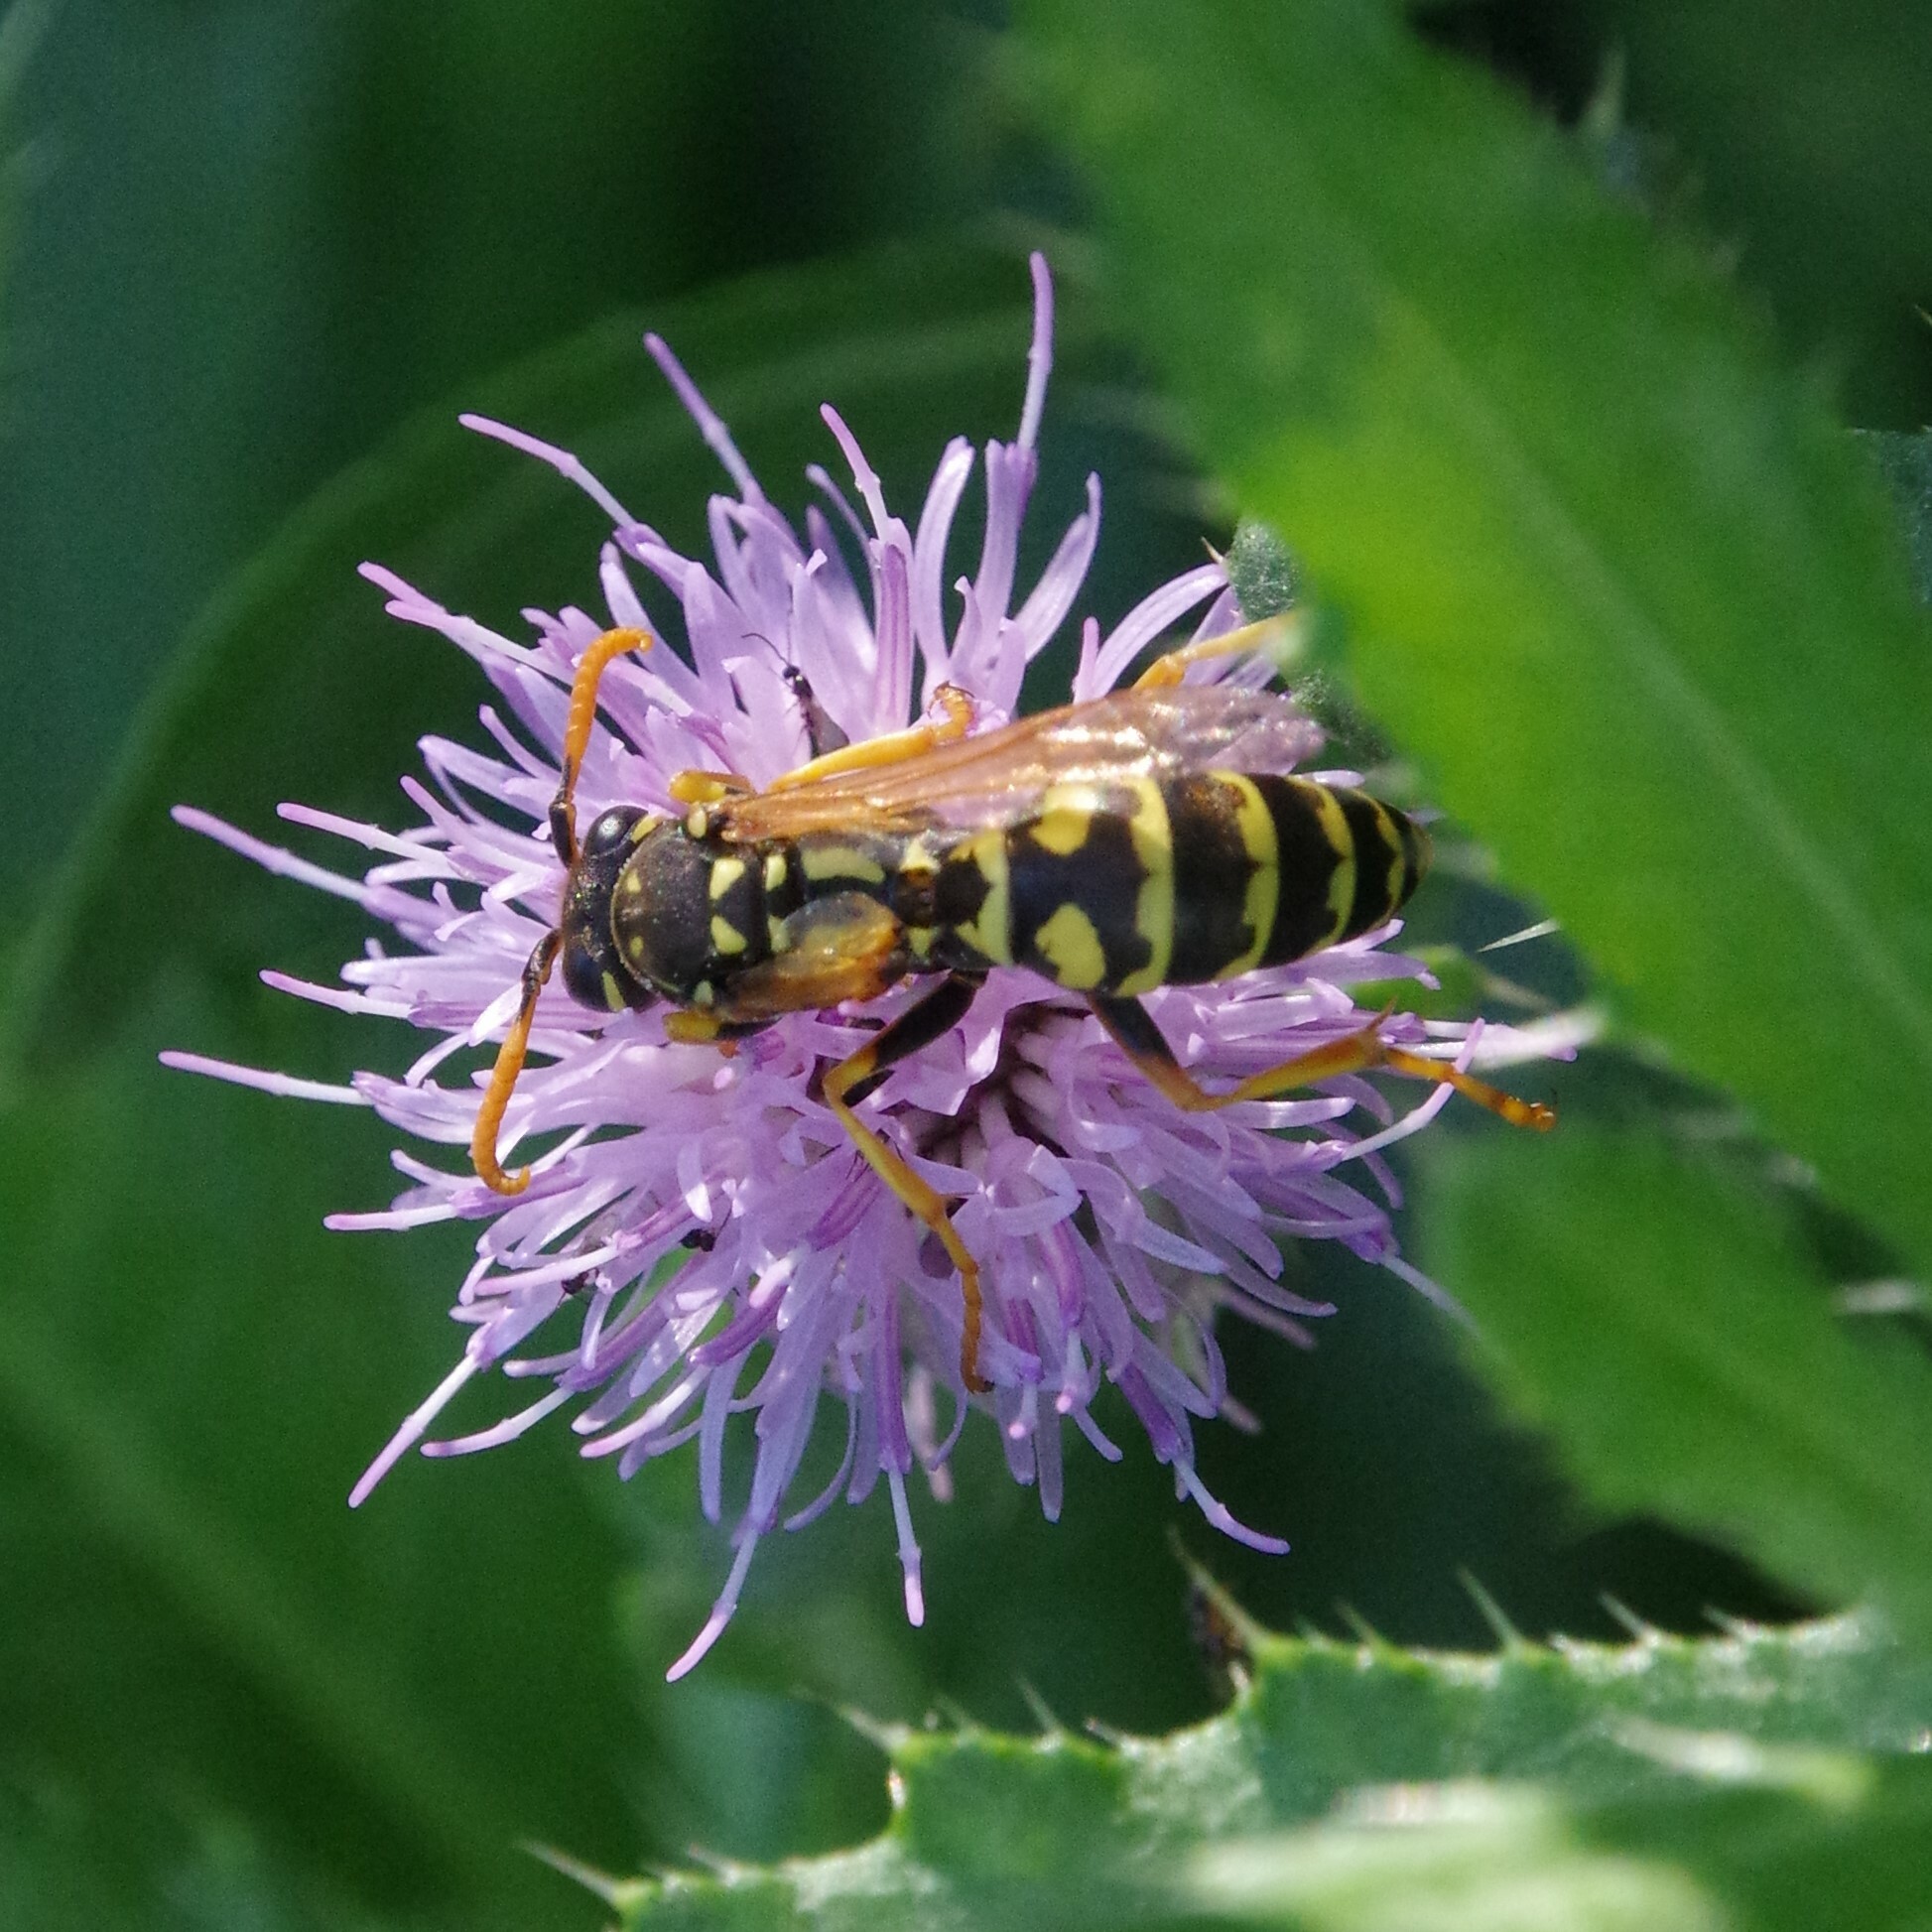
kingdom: Animalia
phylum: Arthropoda
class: Insecta
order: Hymenoptera
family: Eumenidae
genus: Polistes
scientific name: Polistes dominula
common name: Paper wasp
